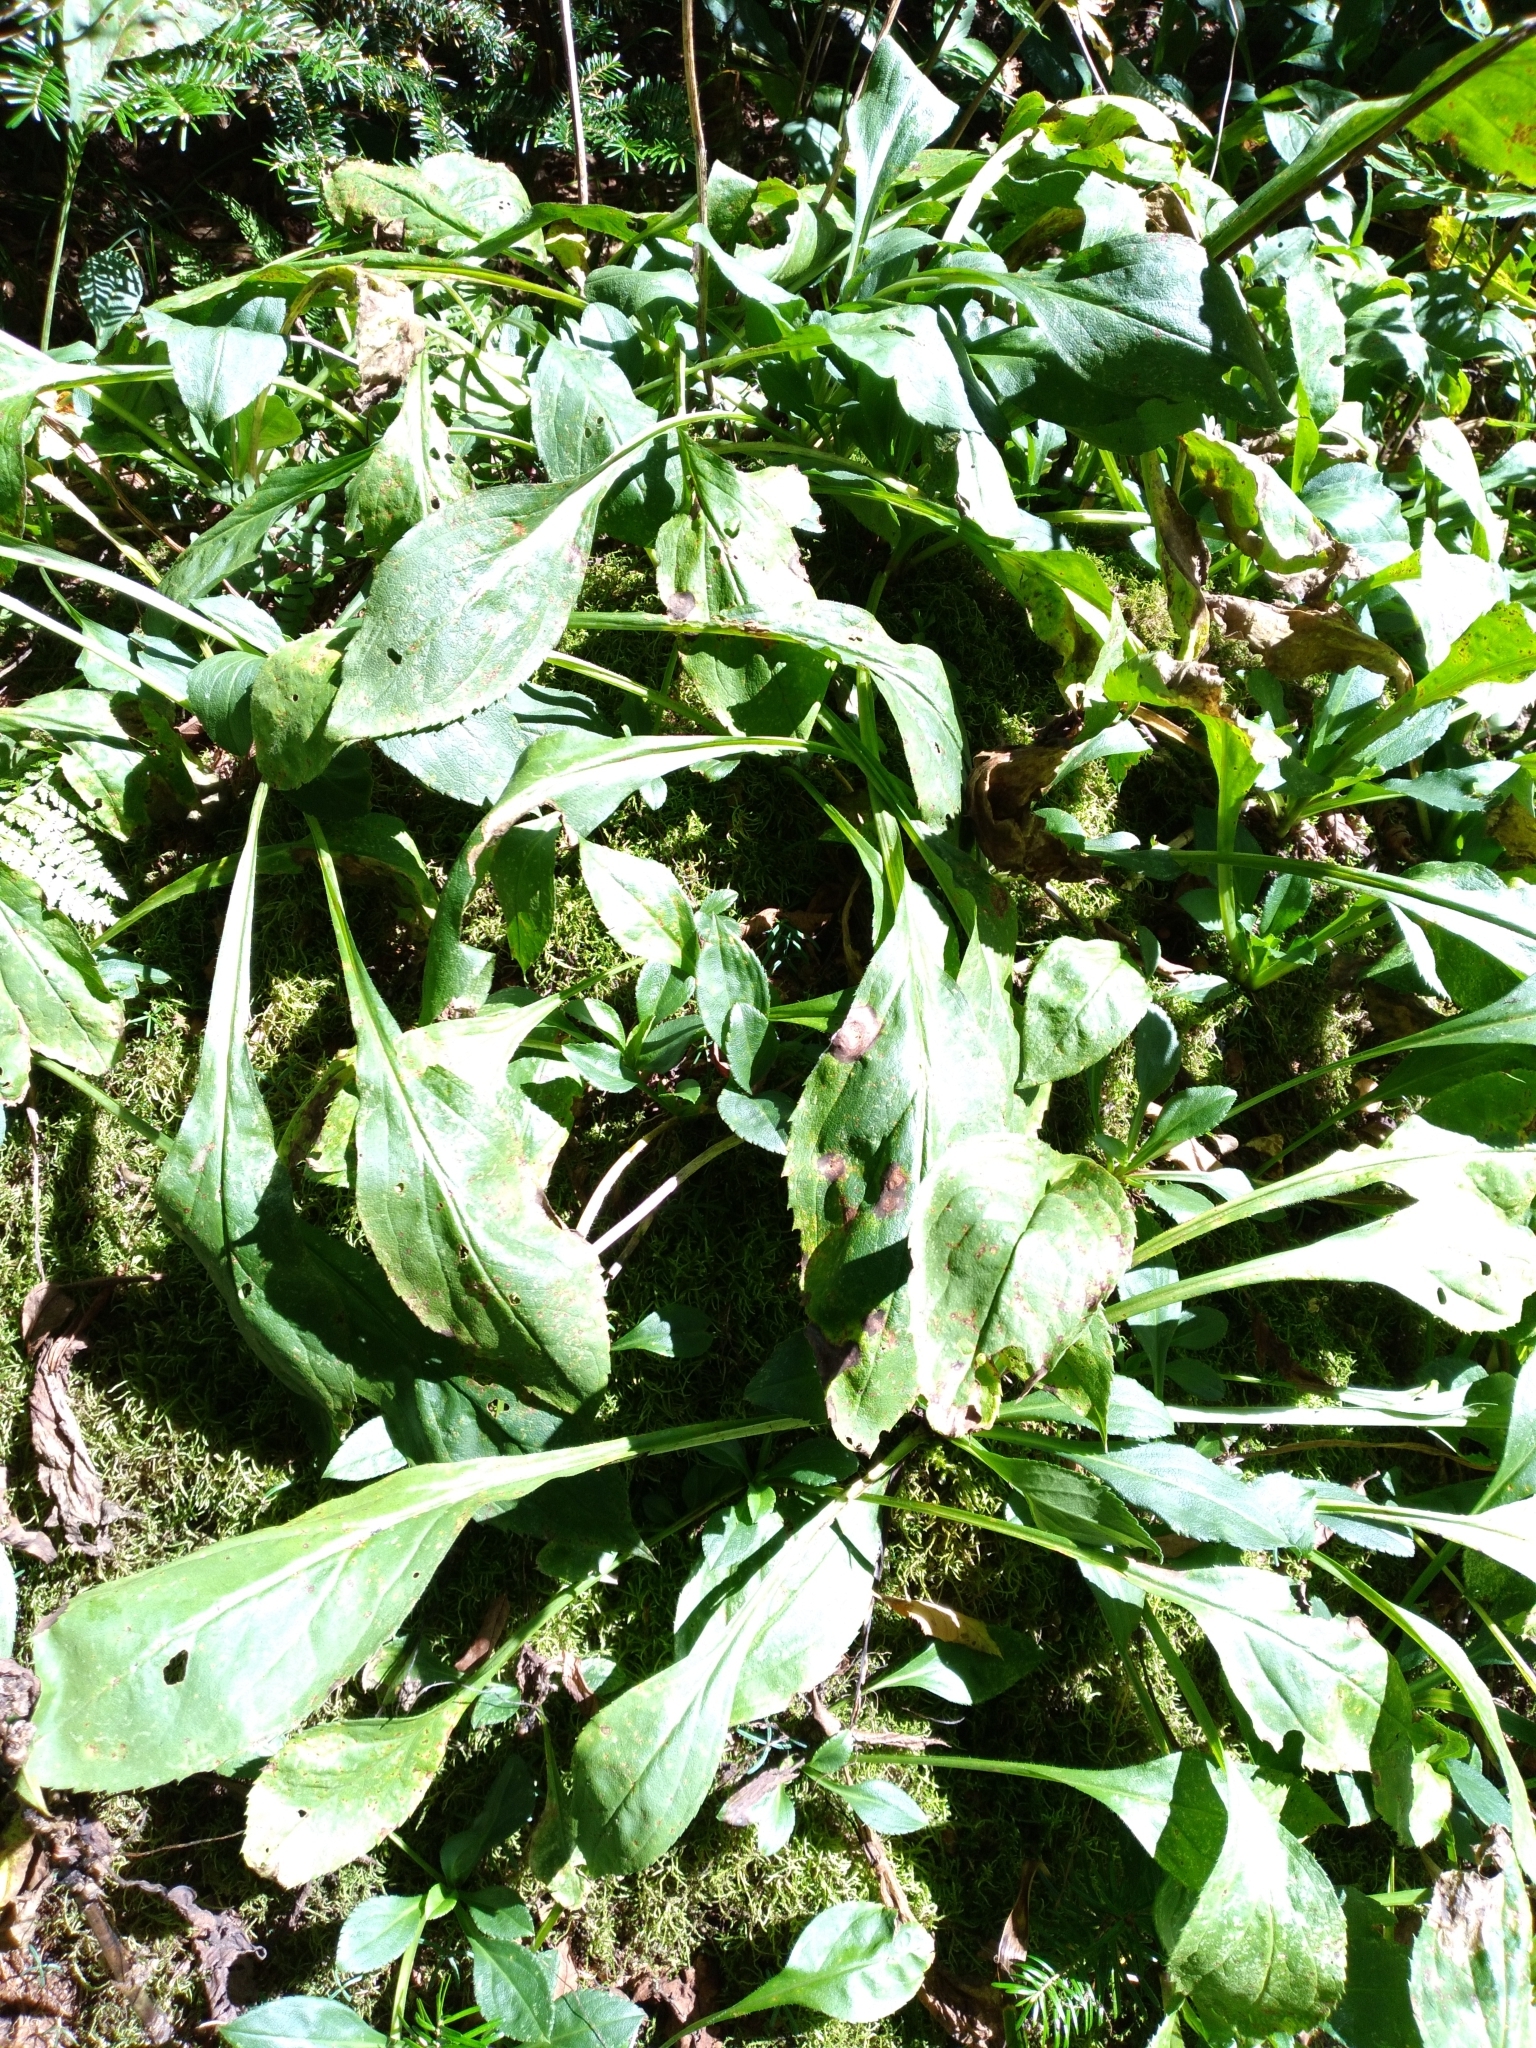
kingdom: Plantae
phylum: Tracheophyta
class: Magnoliopsida
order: Asterales
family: Asteraceae
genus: Solidago
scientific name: Solidago patula
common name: Rough-leaf goldenrod
